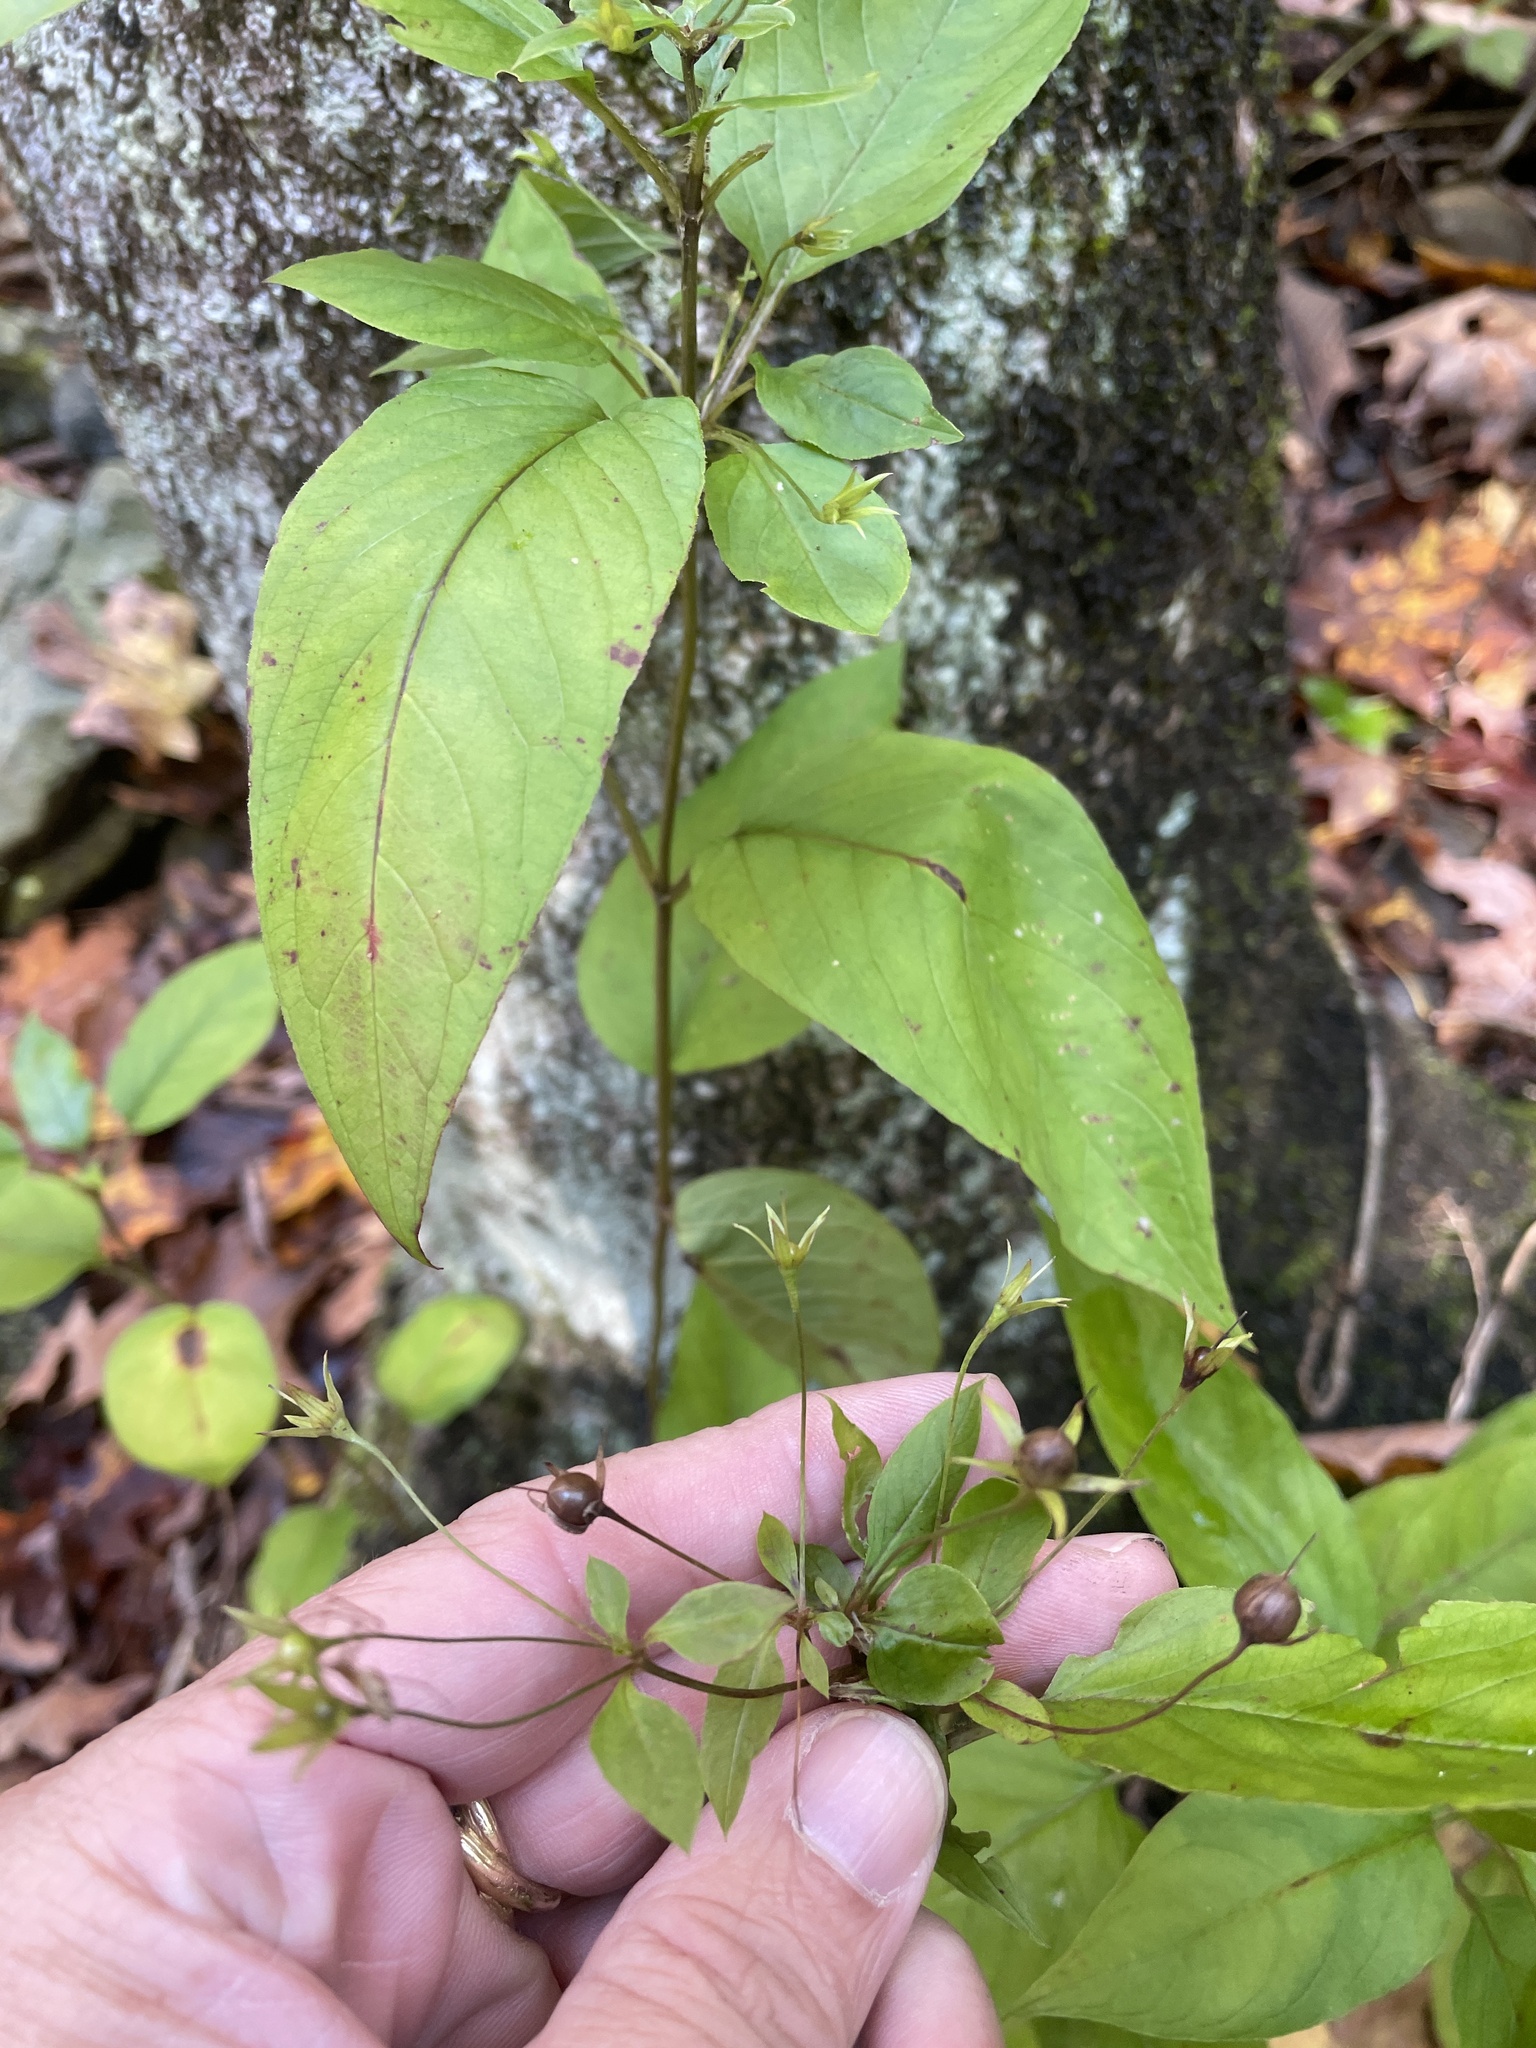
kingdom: Plantae
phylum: Tracheophyta
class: Magnoliopsida
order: Ericales
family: Primulaceae
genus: Lysimachia
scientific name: Lysimachia ciliata
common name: Fringed loosestrife
